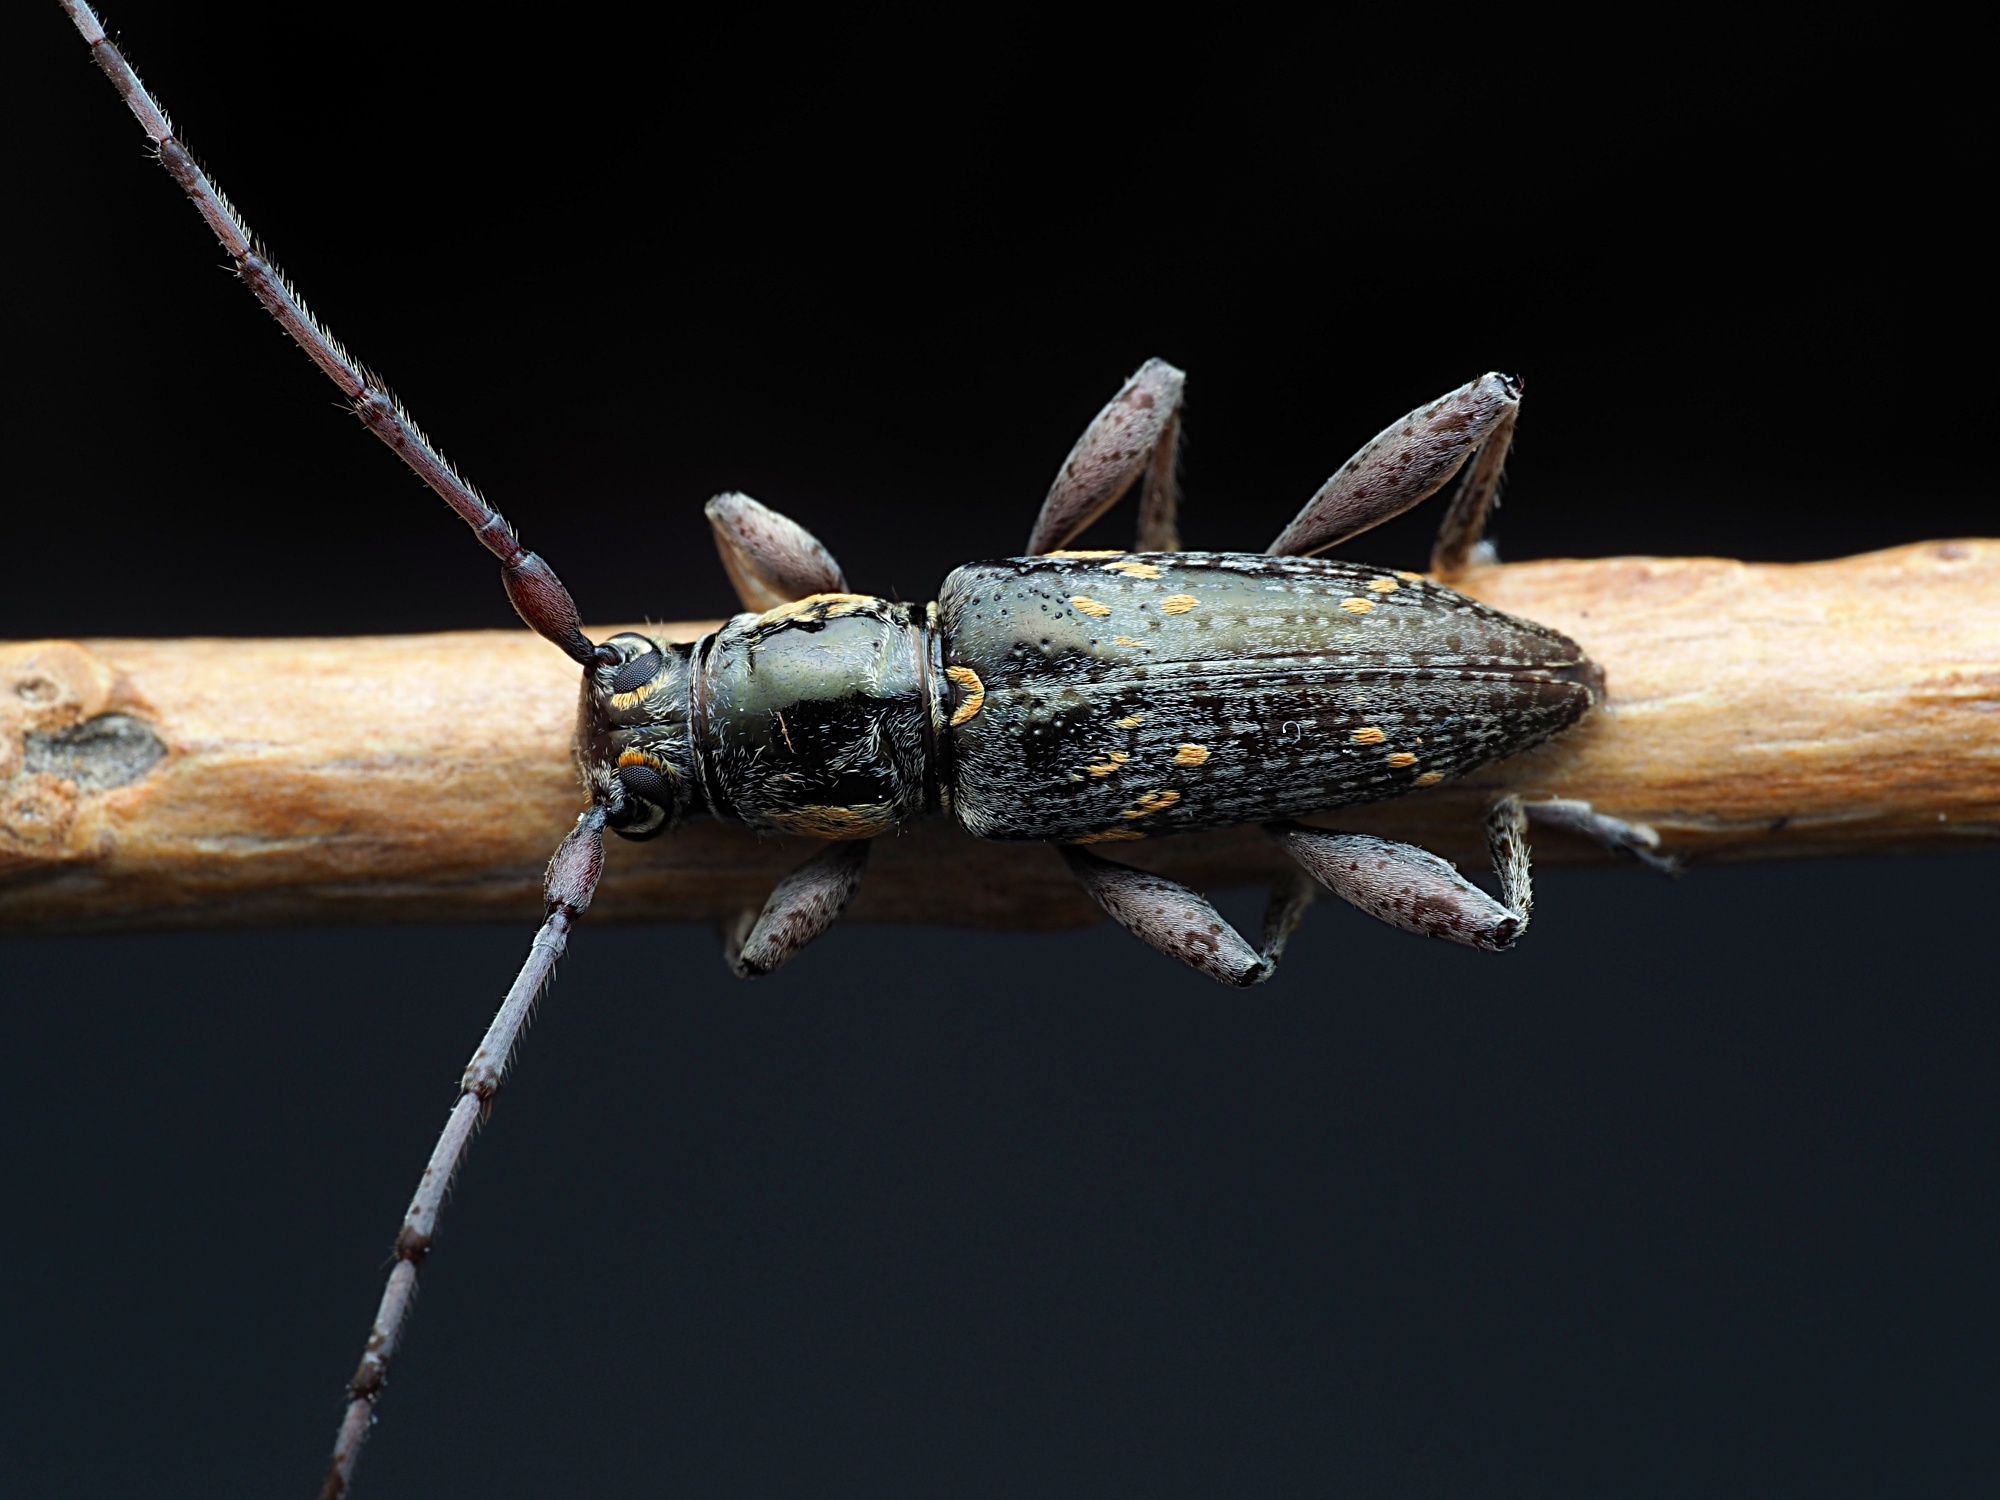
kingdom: Animalia
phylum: Arthropoda
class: Insecta
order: Coleoptera
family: Cerambycidae
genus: Xylotoles
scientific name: Xylotoles griseus
